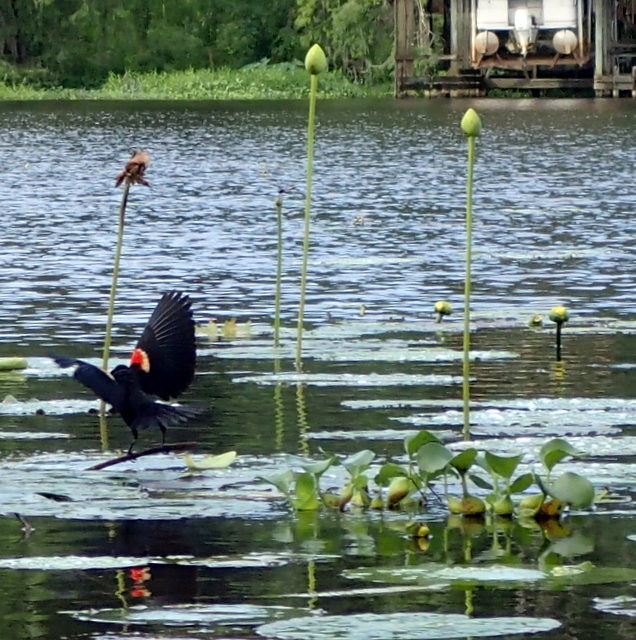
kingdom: Animalia
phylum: Chordata
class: Aves
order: Passeriformes
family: Icteridae
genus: Agelaius
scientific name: Agelaius phoeniceus
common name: Red-winged blackbird
